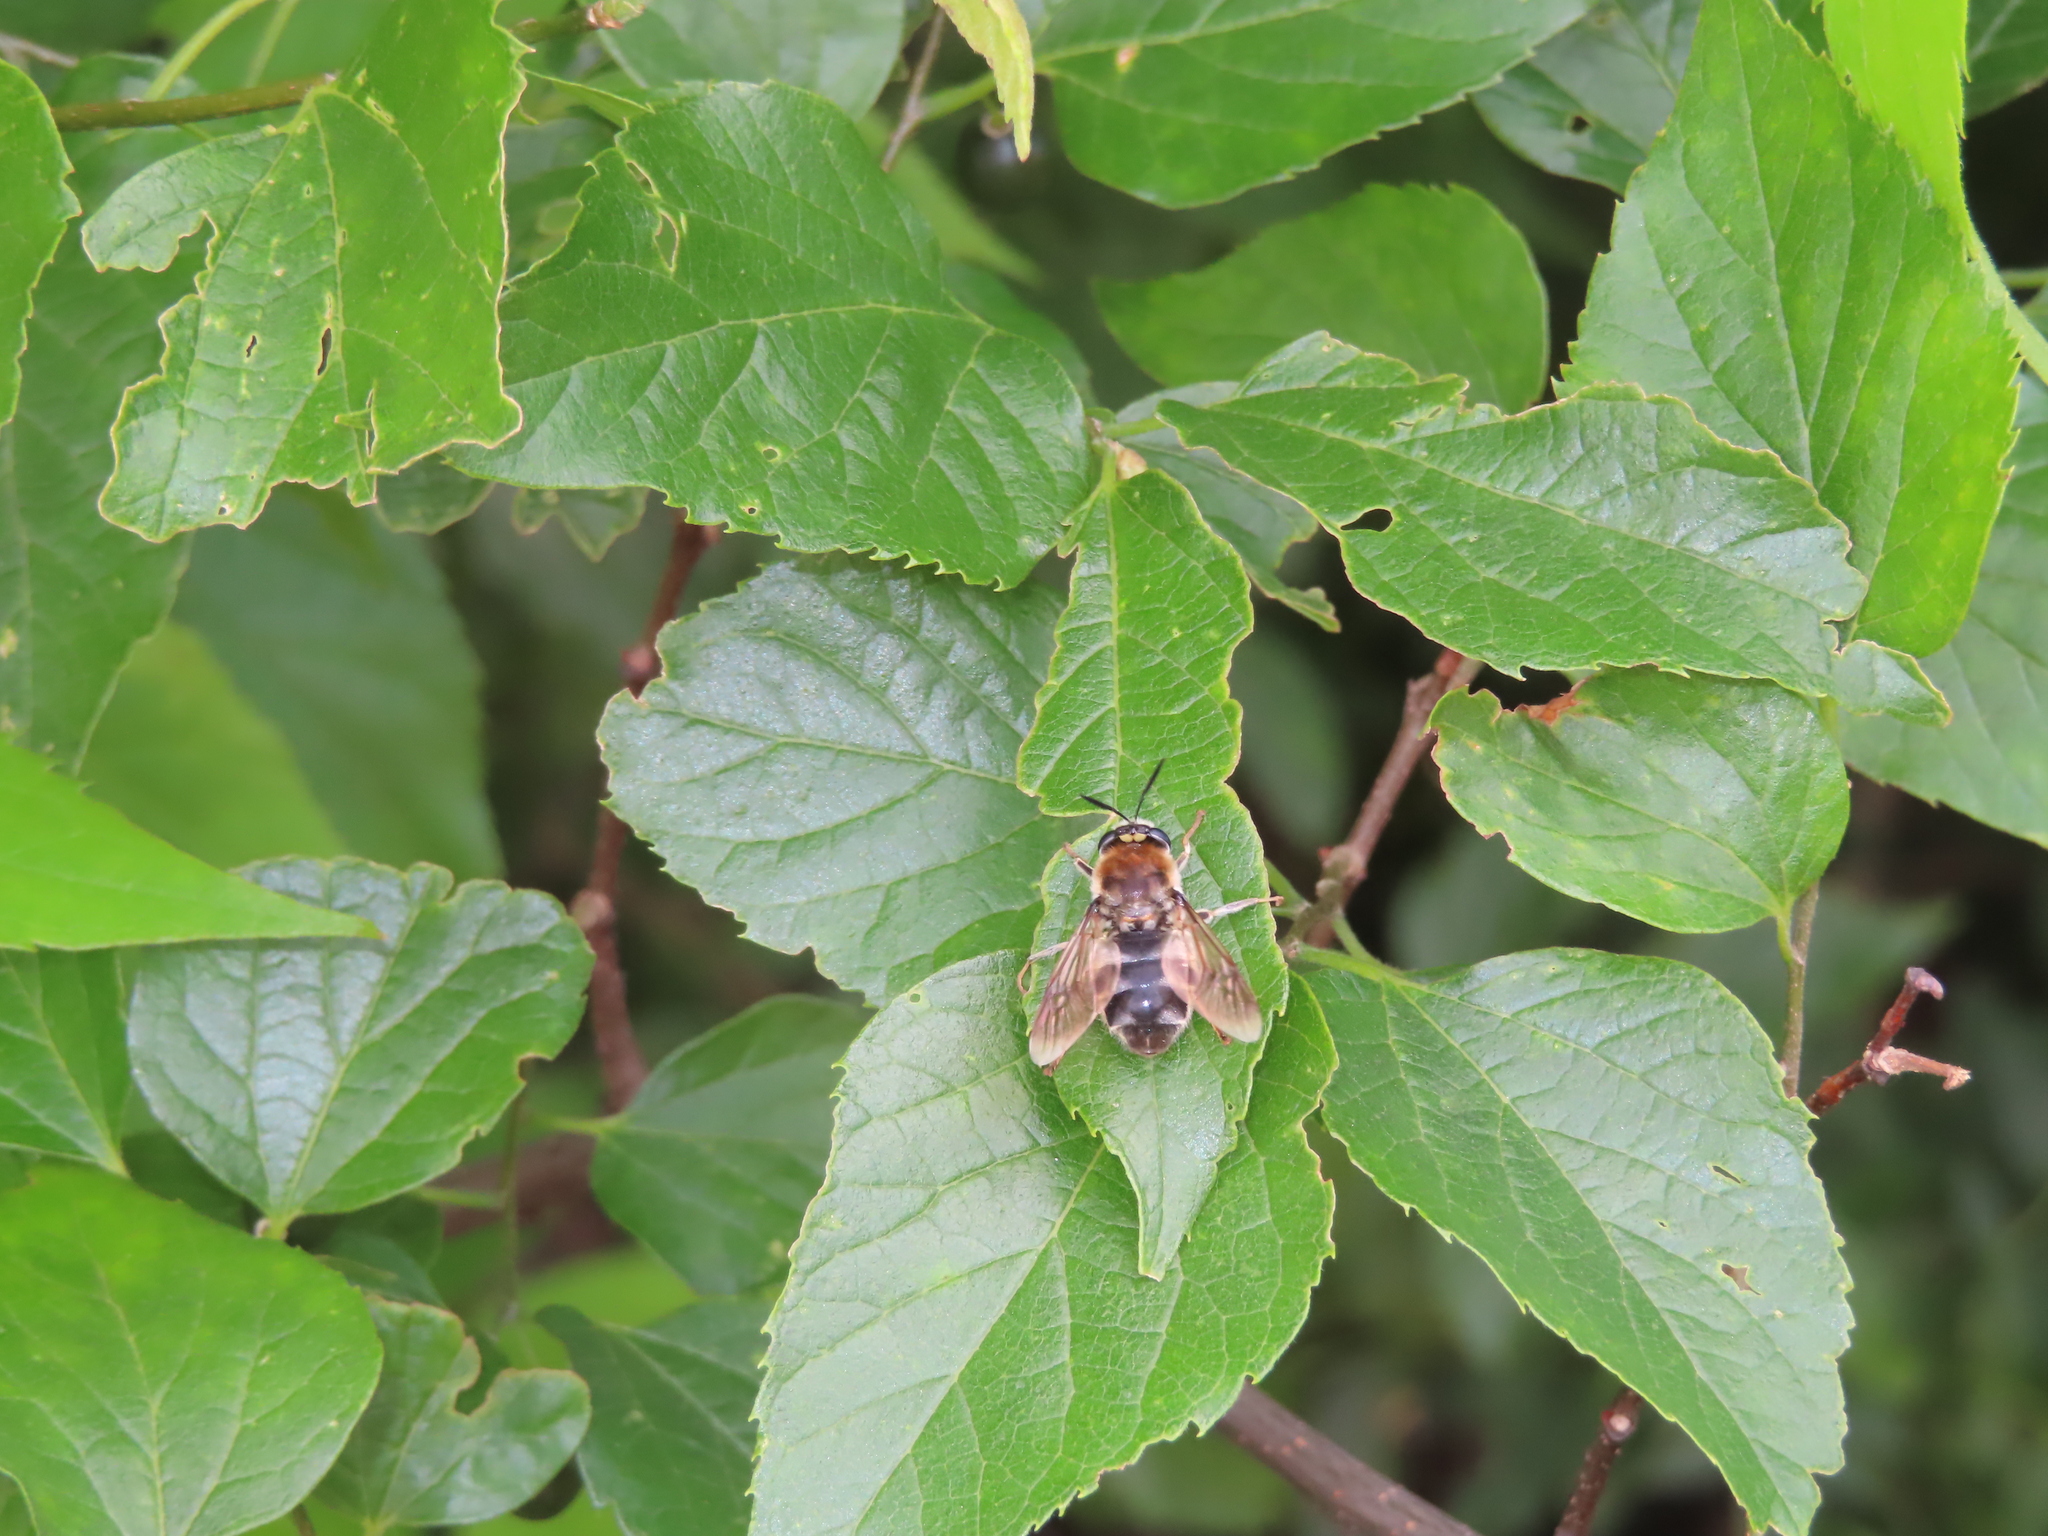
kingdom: Animalia
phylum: Arthropoda
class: Insecta
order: Diptera
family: Stratiomyidae
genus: Stratiomys
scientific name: Stratiomys longicornis
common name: Long-horned general
